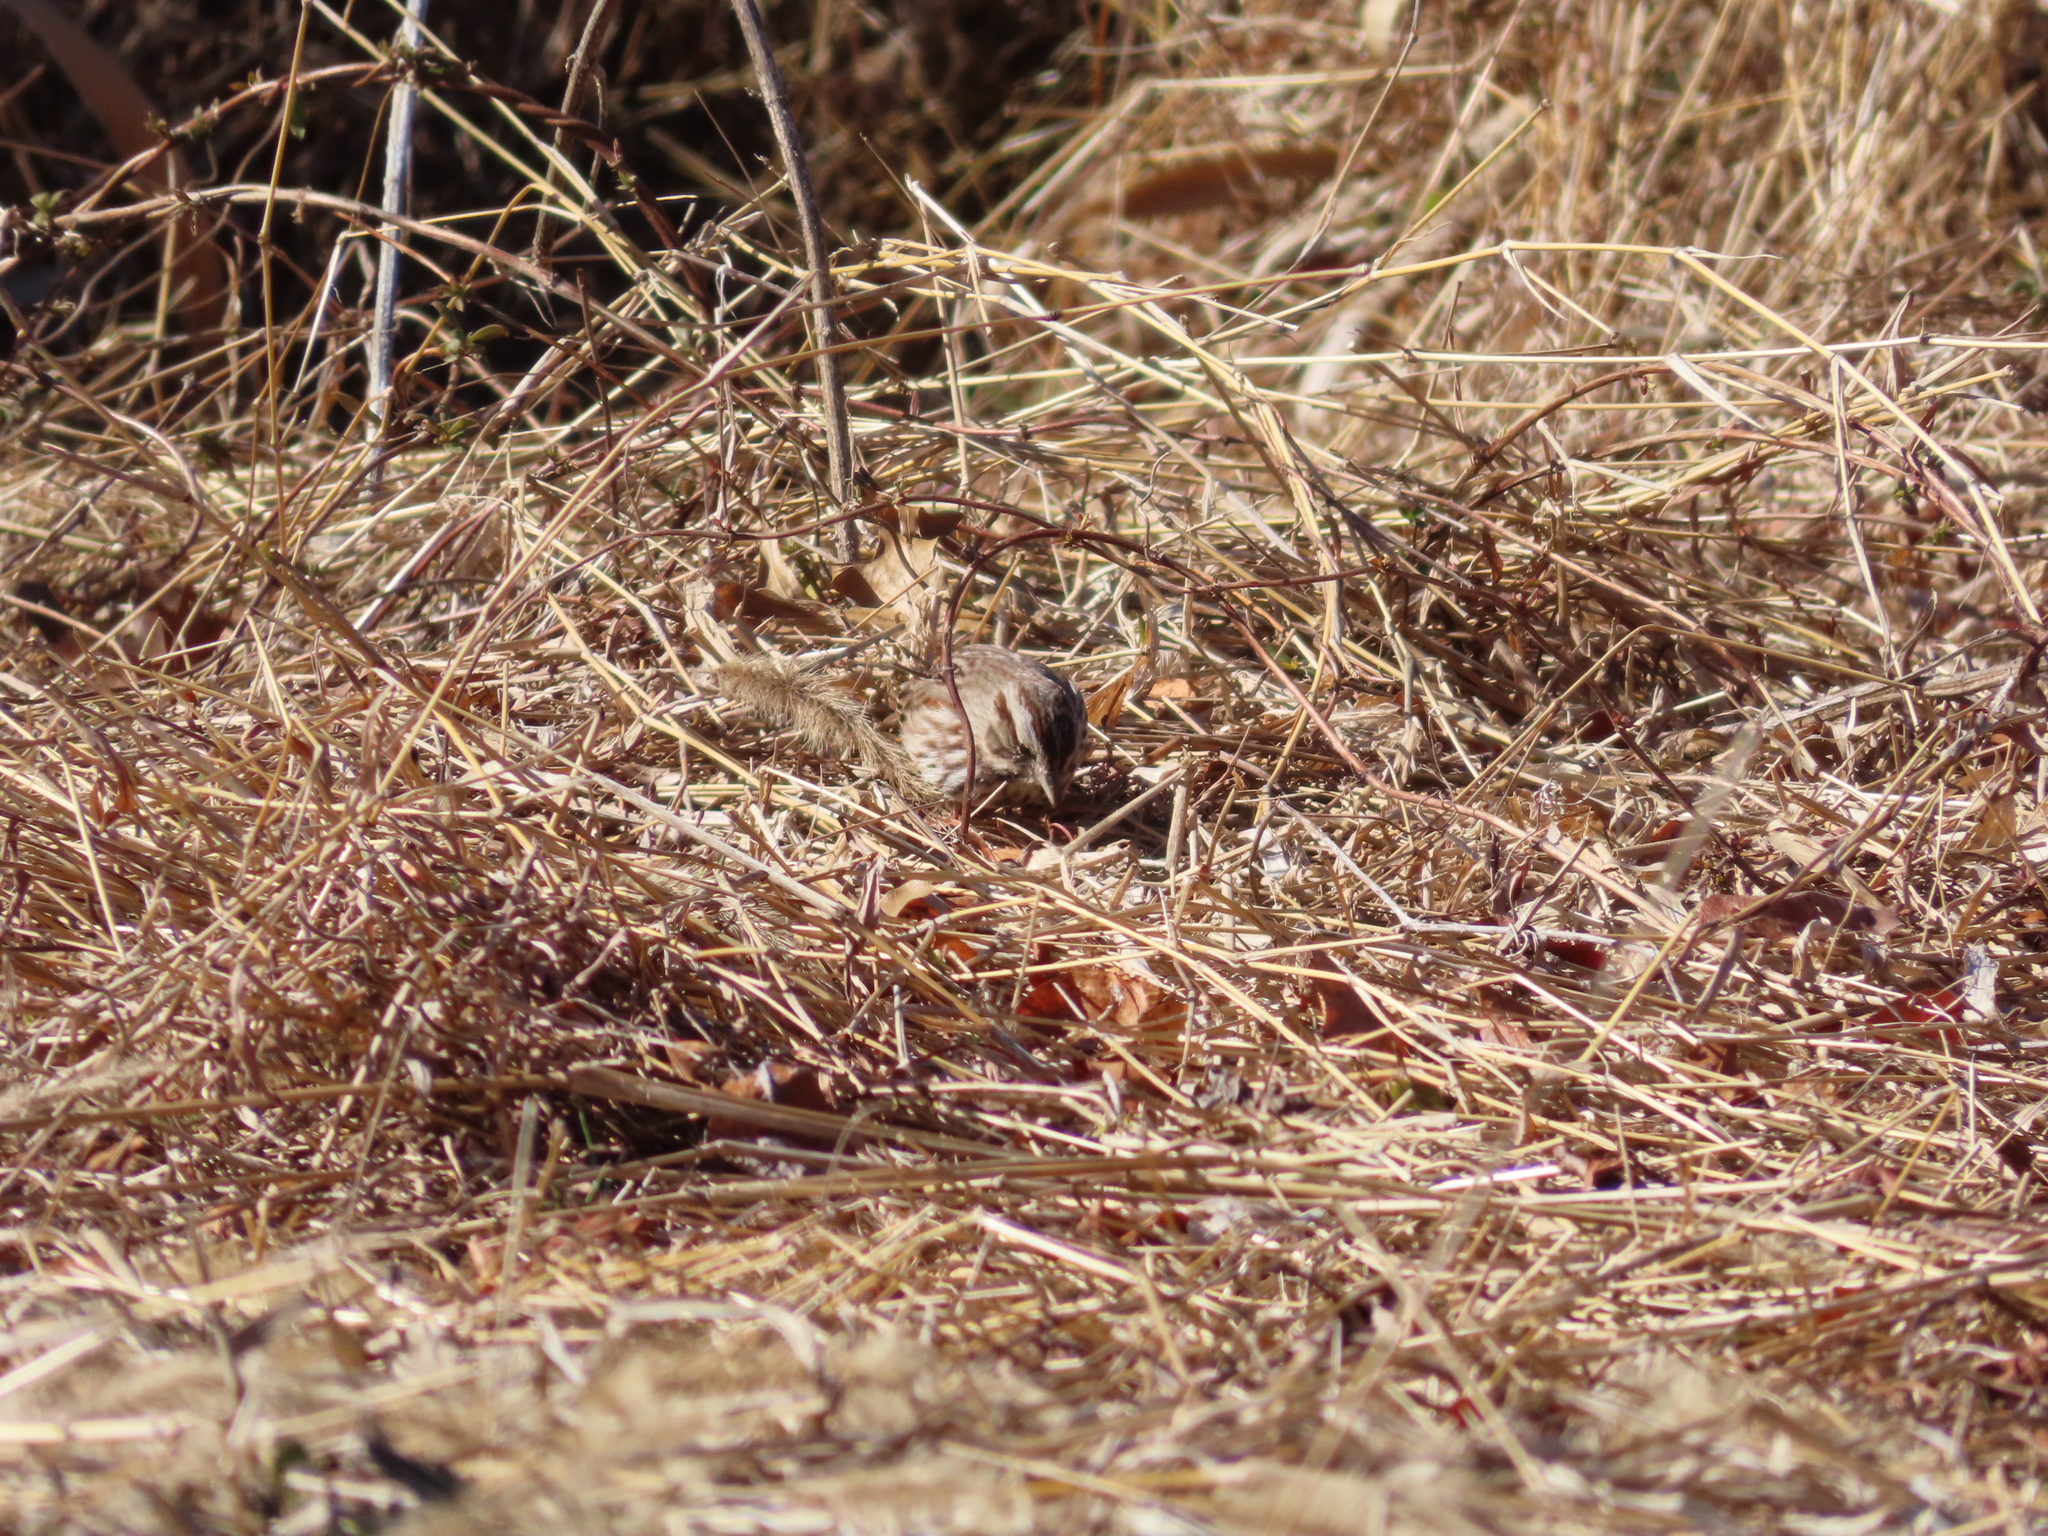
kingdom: Animalia
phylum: Chordata
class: Aves
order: Passeriformes
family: Passerellidae
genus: Melospiza
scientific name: Melospiza melodia
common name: Song sparrow
